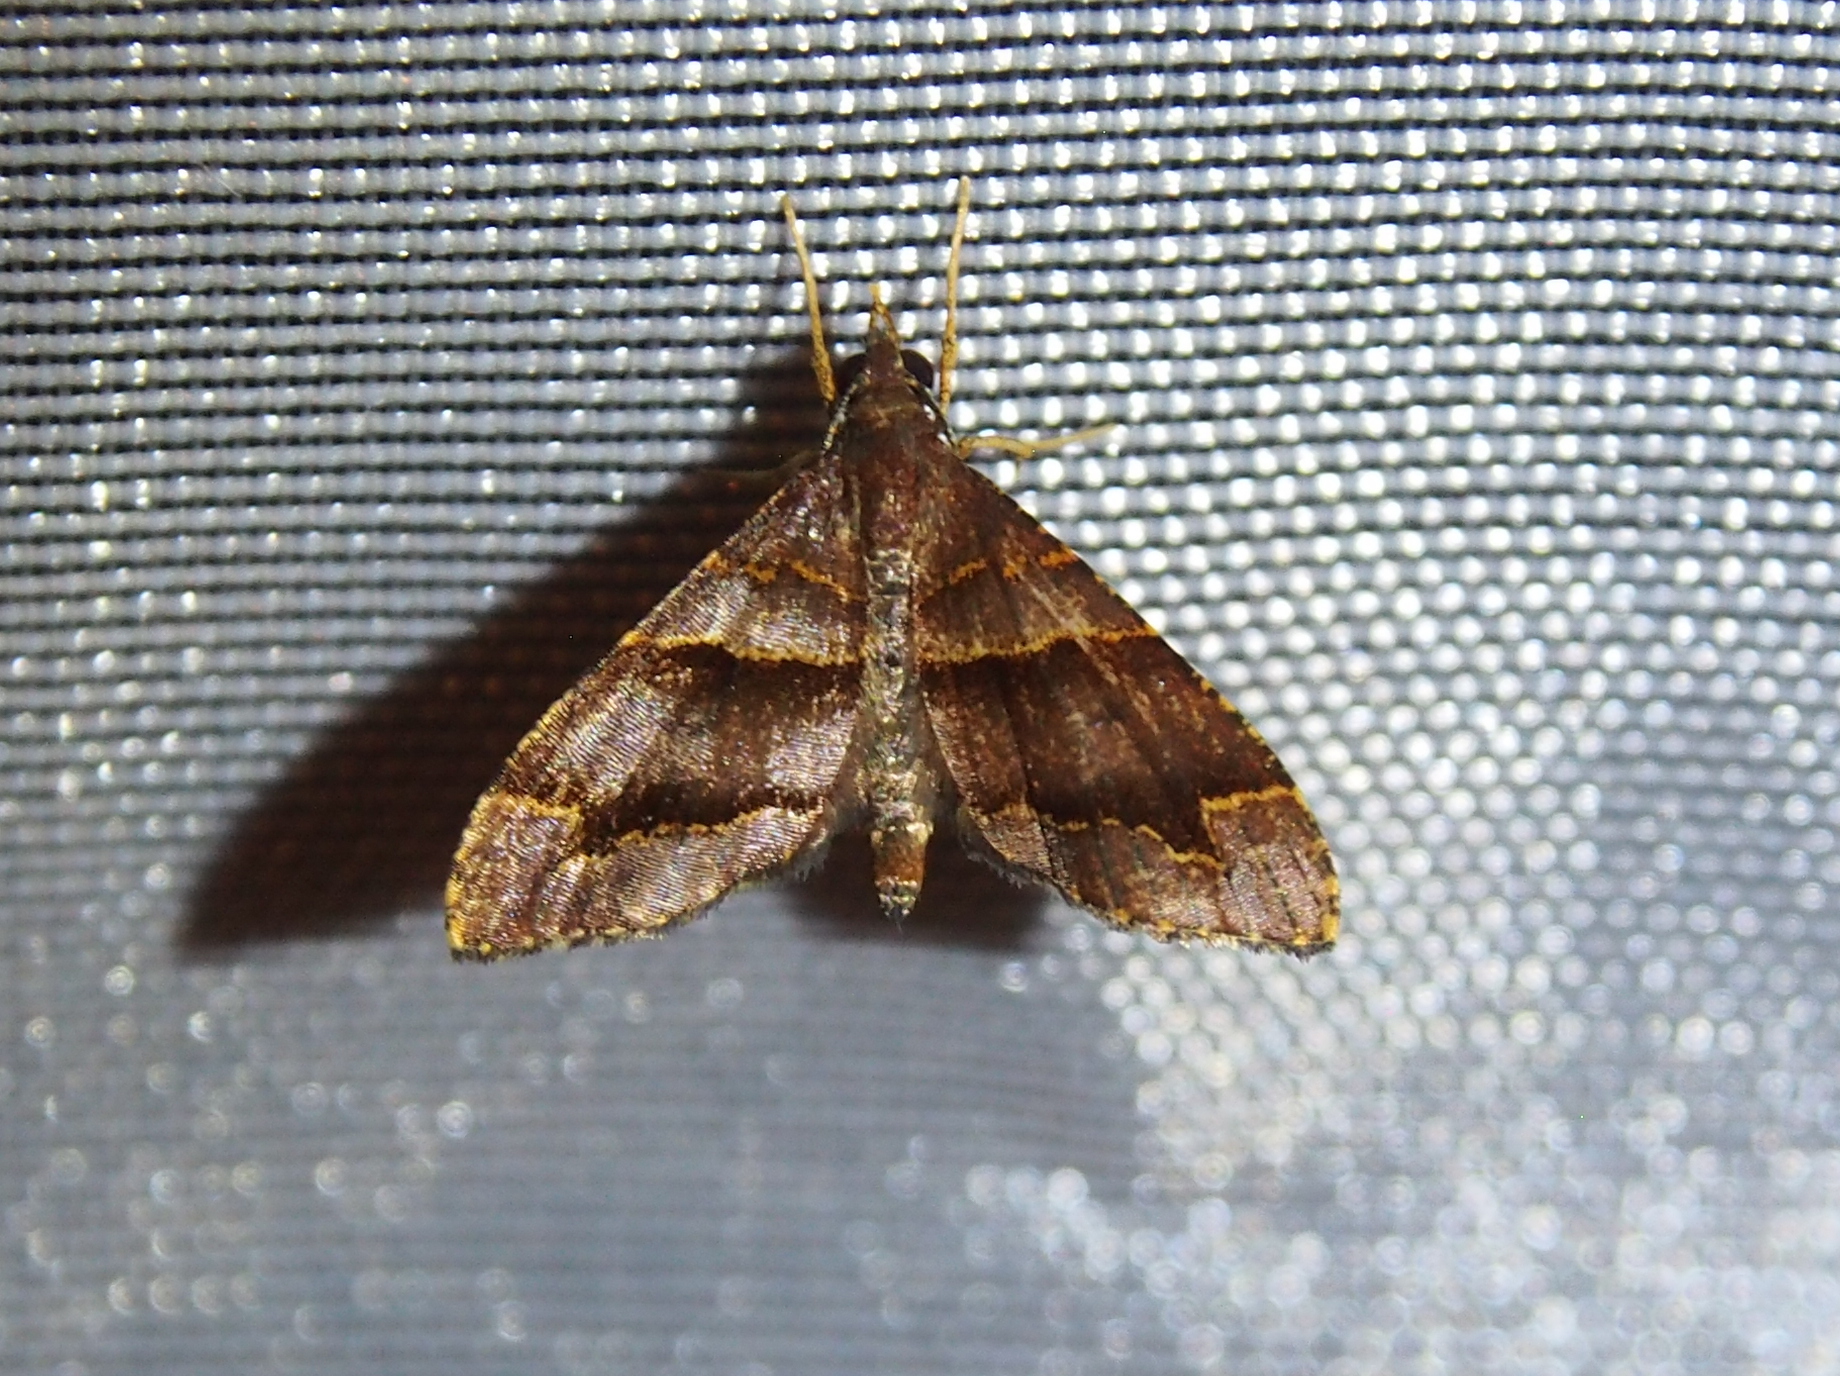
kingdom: Animalia
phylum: Arthropoda
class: Insecta
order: Lepidoptera
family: Geometridae
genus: Psaliodes
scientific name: Psaliodes cronia
